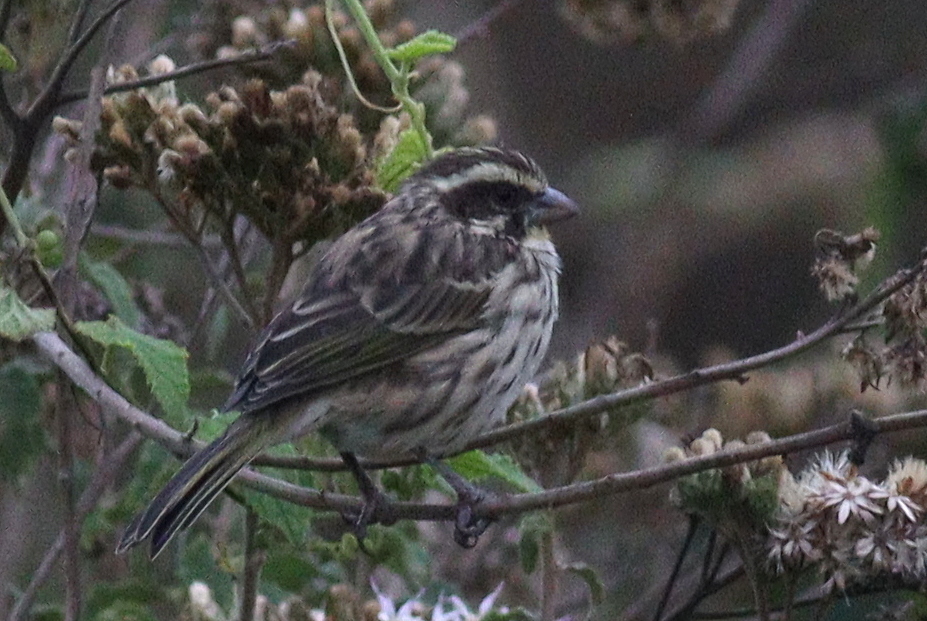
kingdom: Animalia
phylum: Chordata
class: Aves
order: Passeriformes
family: Fringillidae
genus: Crithagra
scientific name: Crithagra striolata
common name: Streaky seedeater
